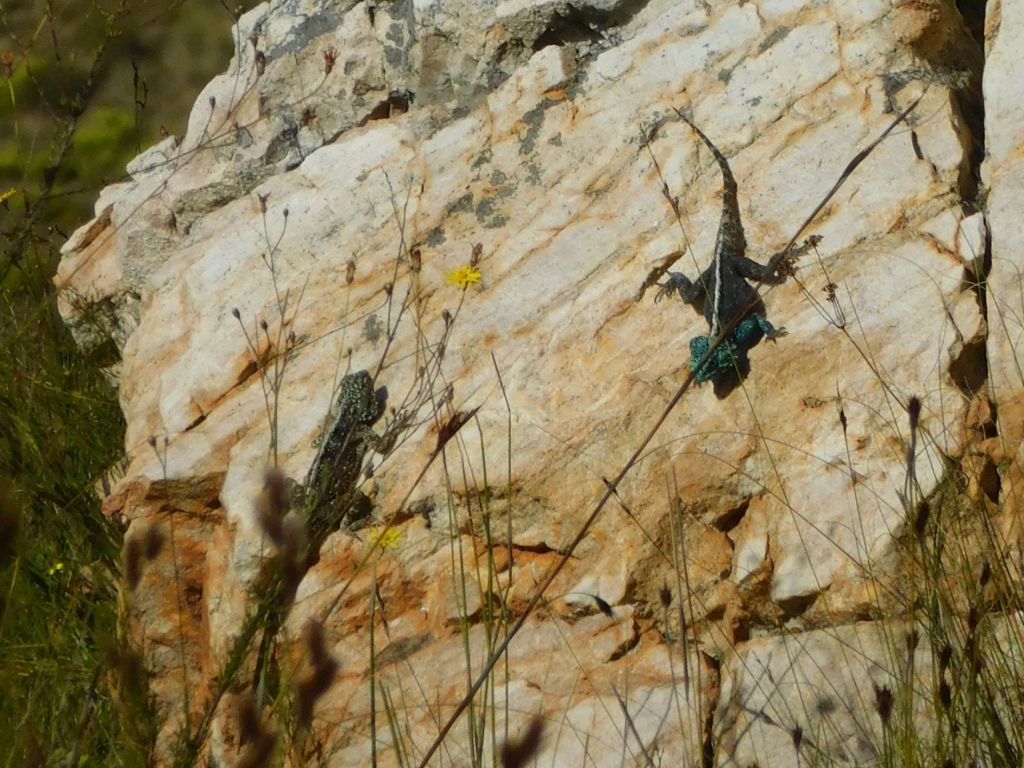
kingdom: Animalia
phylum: Chordata
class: Squamata
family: Agamidae
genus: Agama
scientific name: Agama atra
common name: Southern african rock agama
